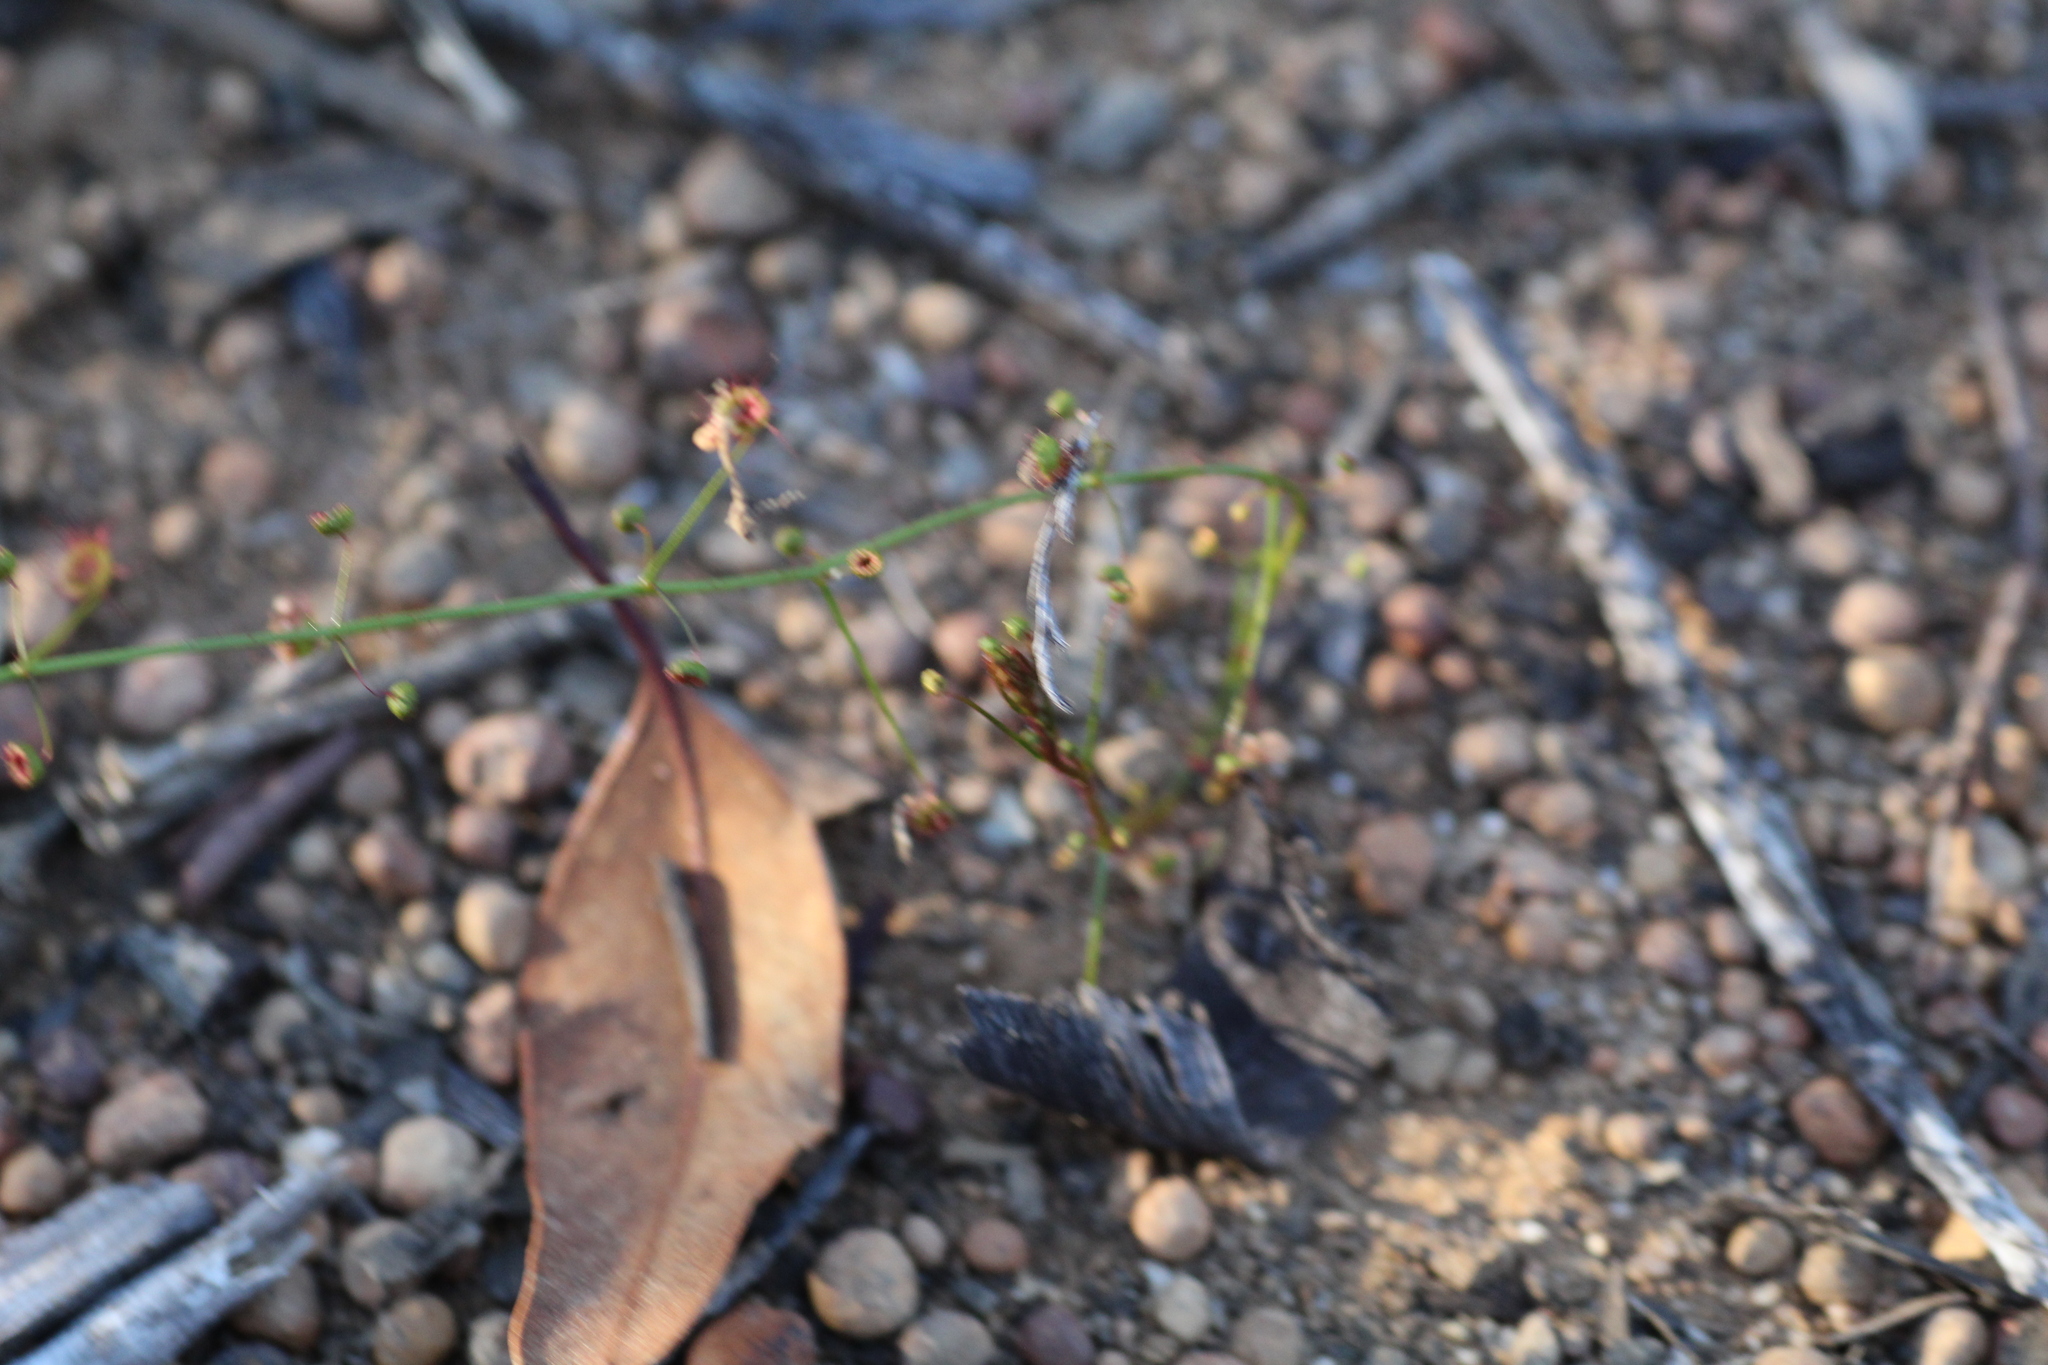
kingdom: Plantae
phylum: Tracheophyta
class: Magnoliopsida
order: Caryophyllales
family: Droseraceae
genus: Drosera
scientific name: Drosera macrantha
